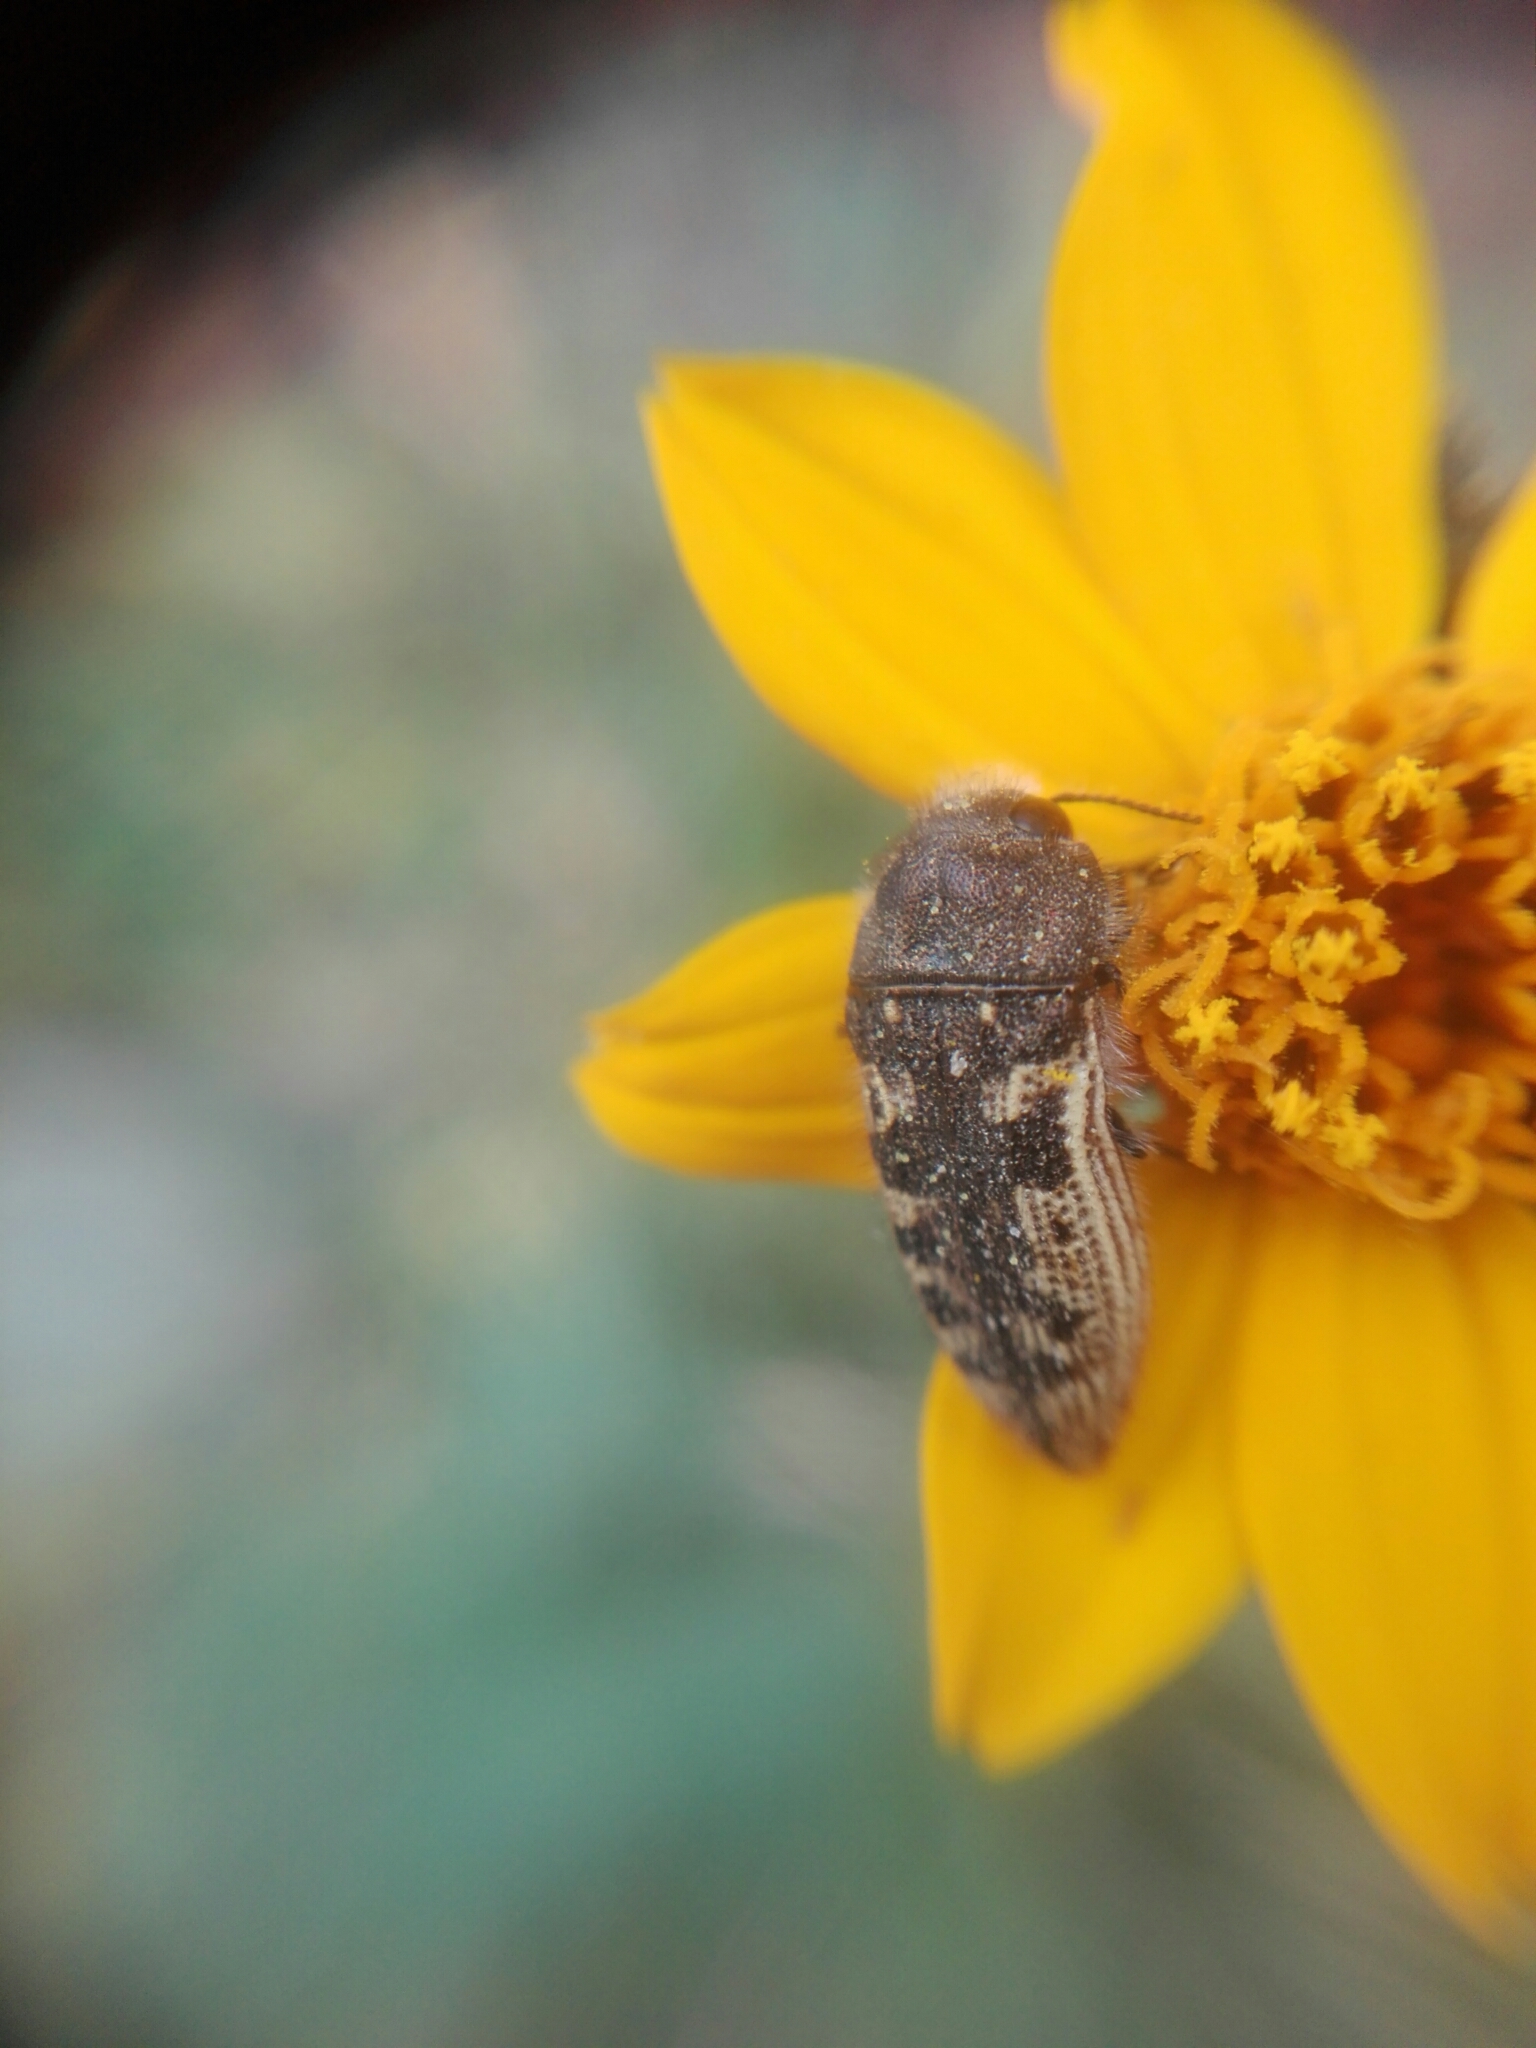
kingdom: Animalia
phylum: Arthropoda
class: Insecta
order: Coleoptera
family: Buprestidae
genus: Acmaeodera
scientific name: Acmaeodera bowditchi
